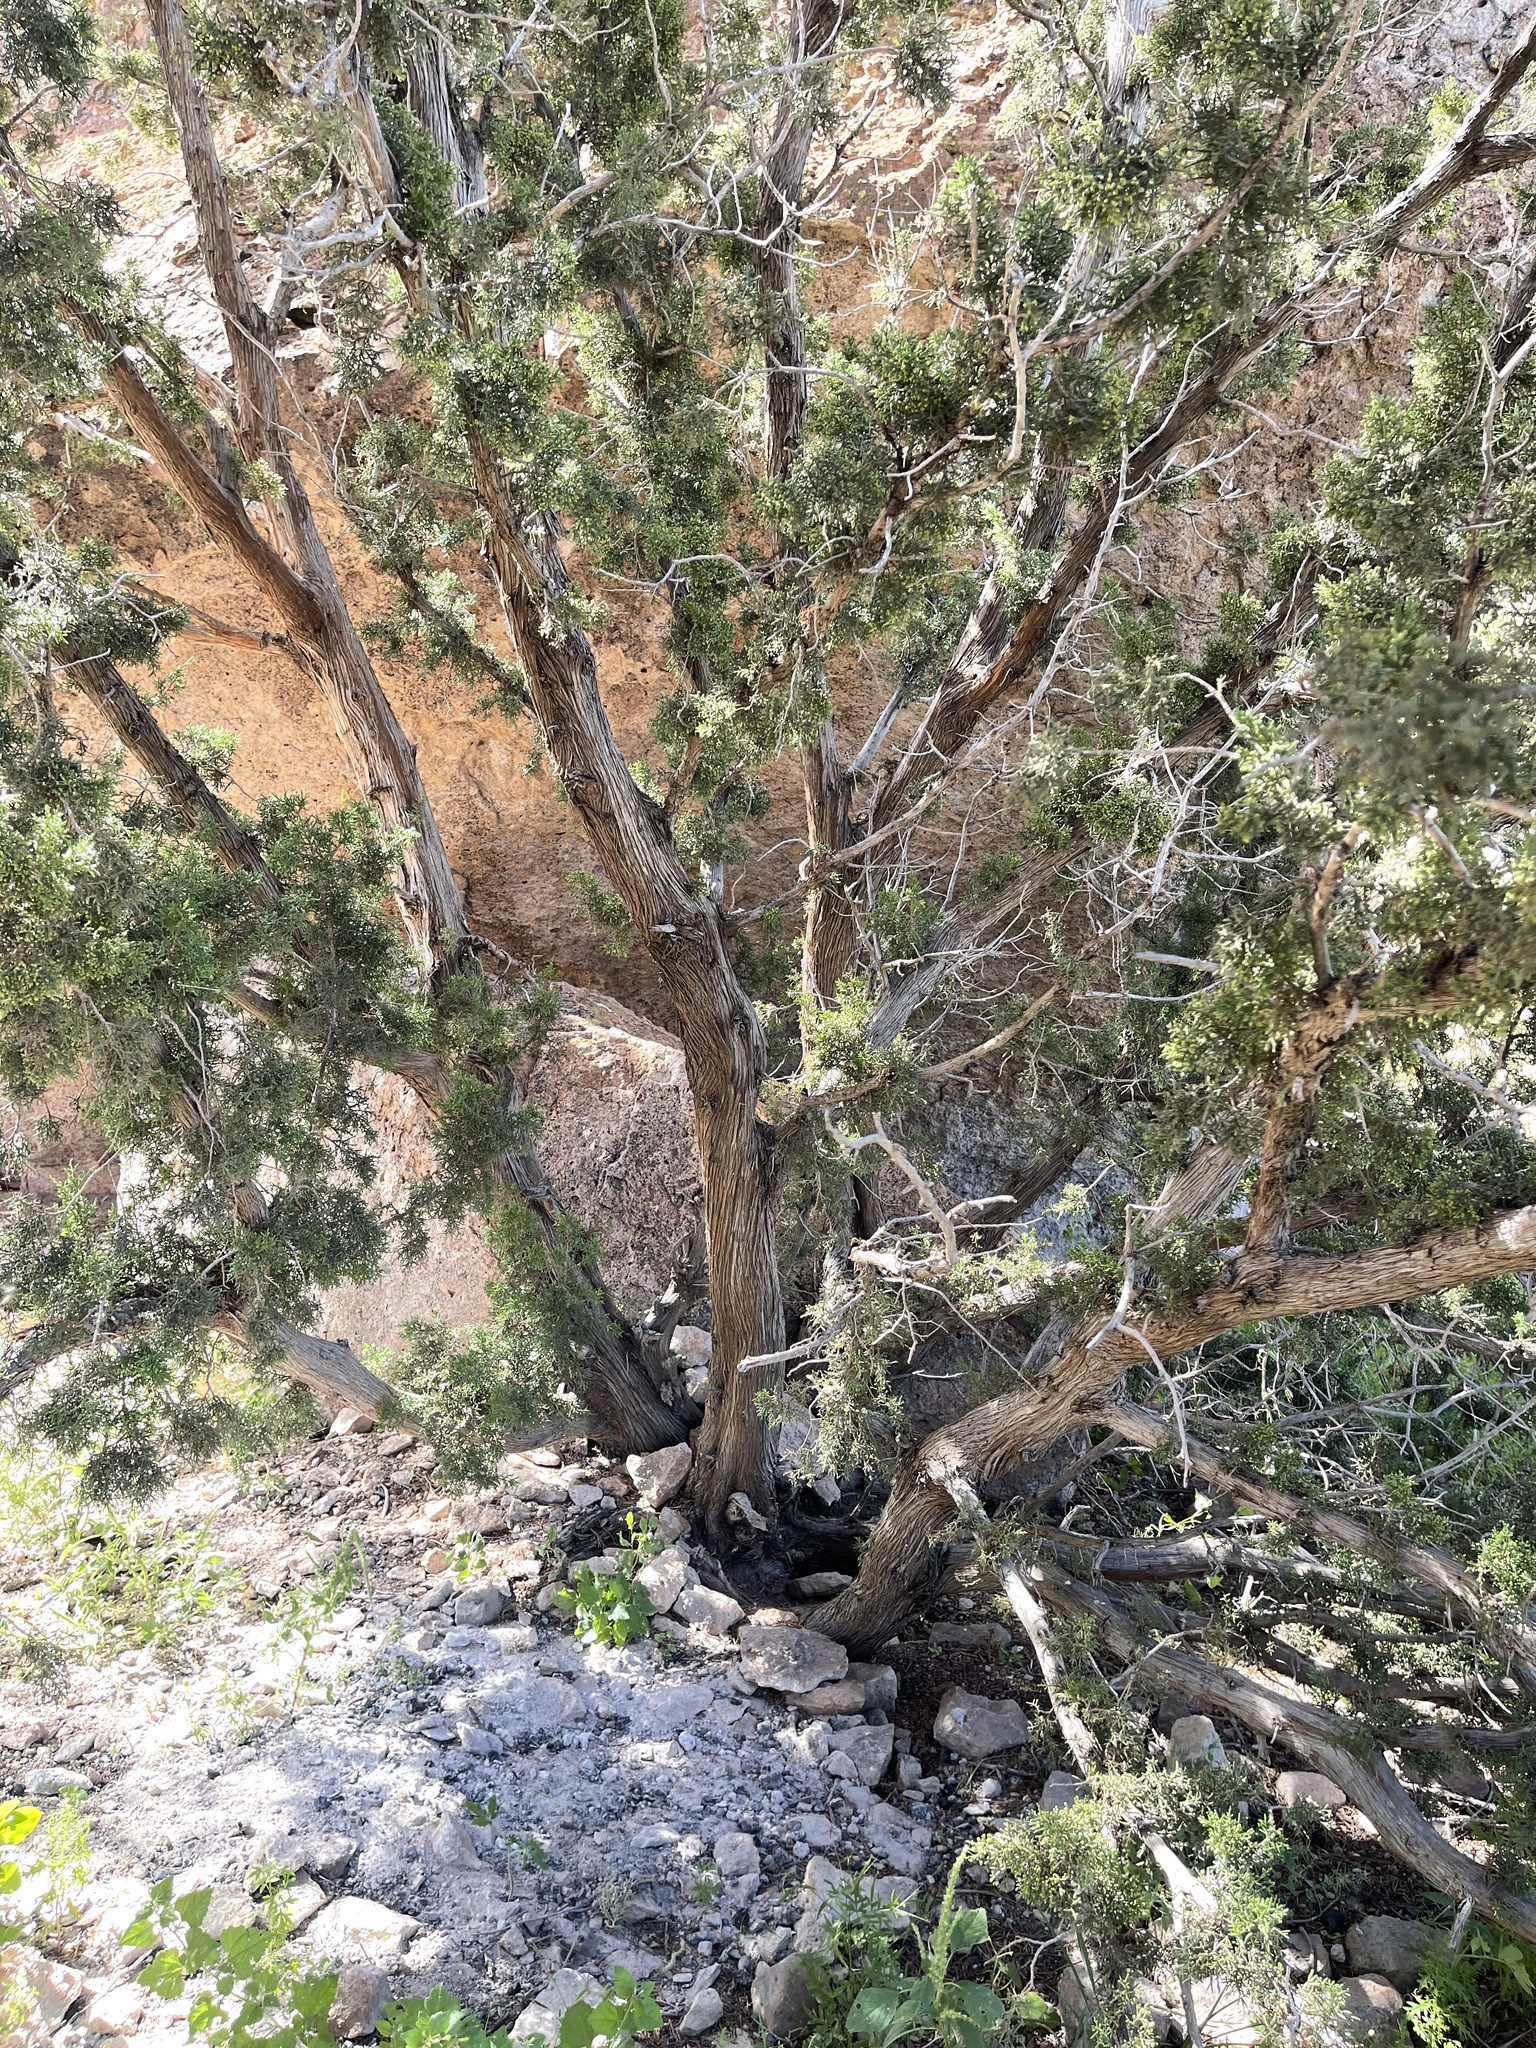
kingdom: Plantae
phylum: Tracheophyta
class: Pinopsida
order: Pinales
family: Cupressaceae
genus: Juniperus
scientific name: Juniperus monosperma
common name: One-seed juniper
